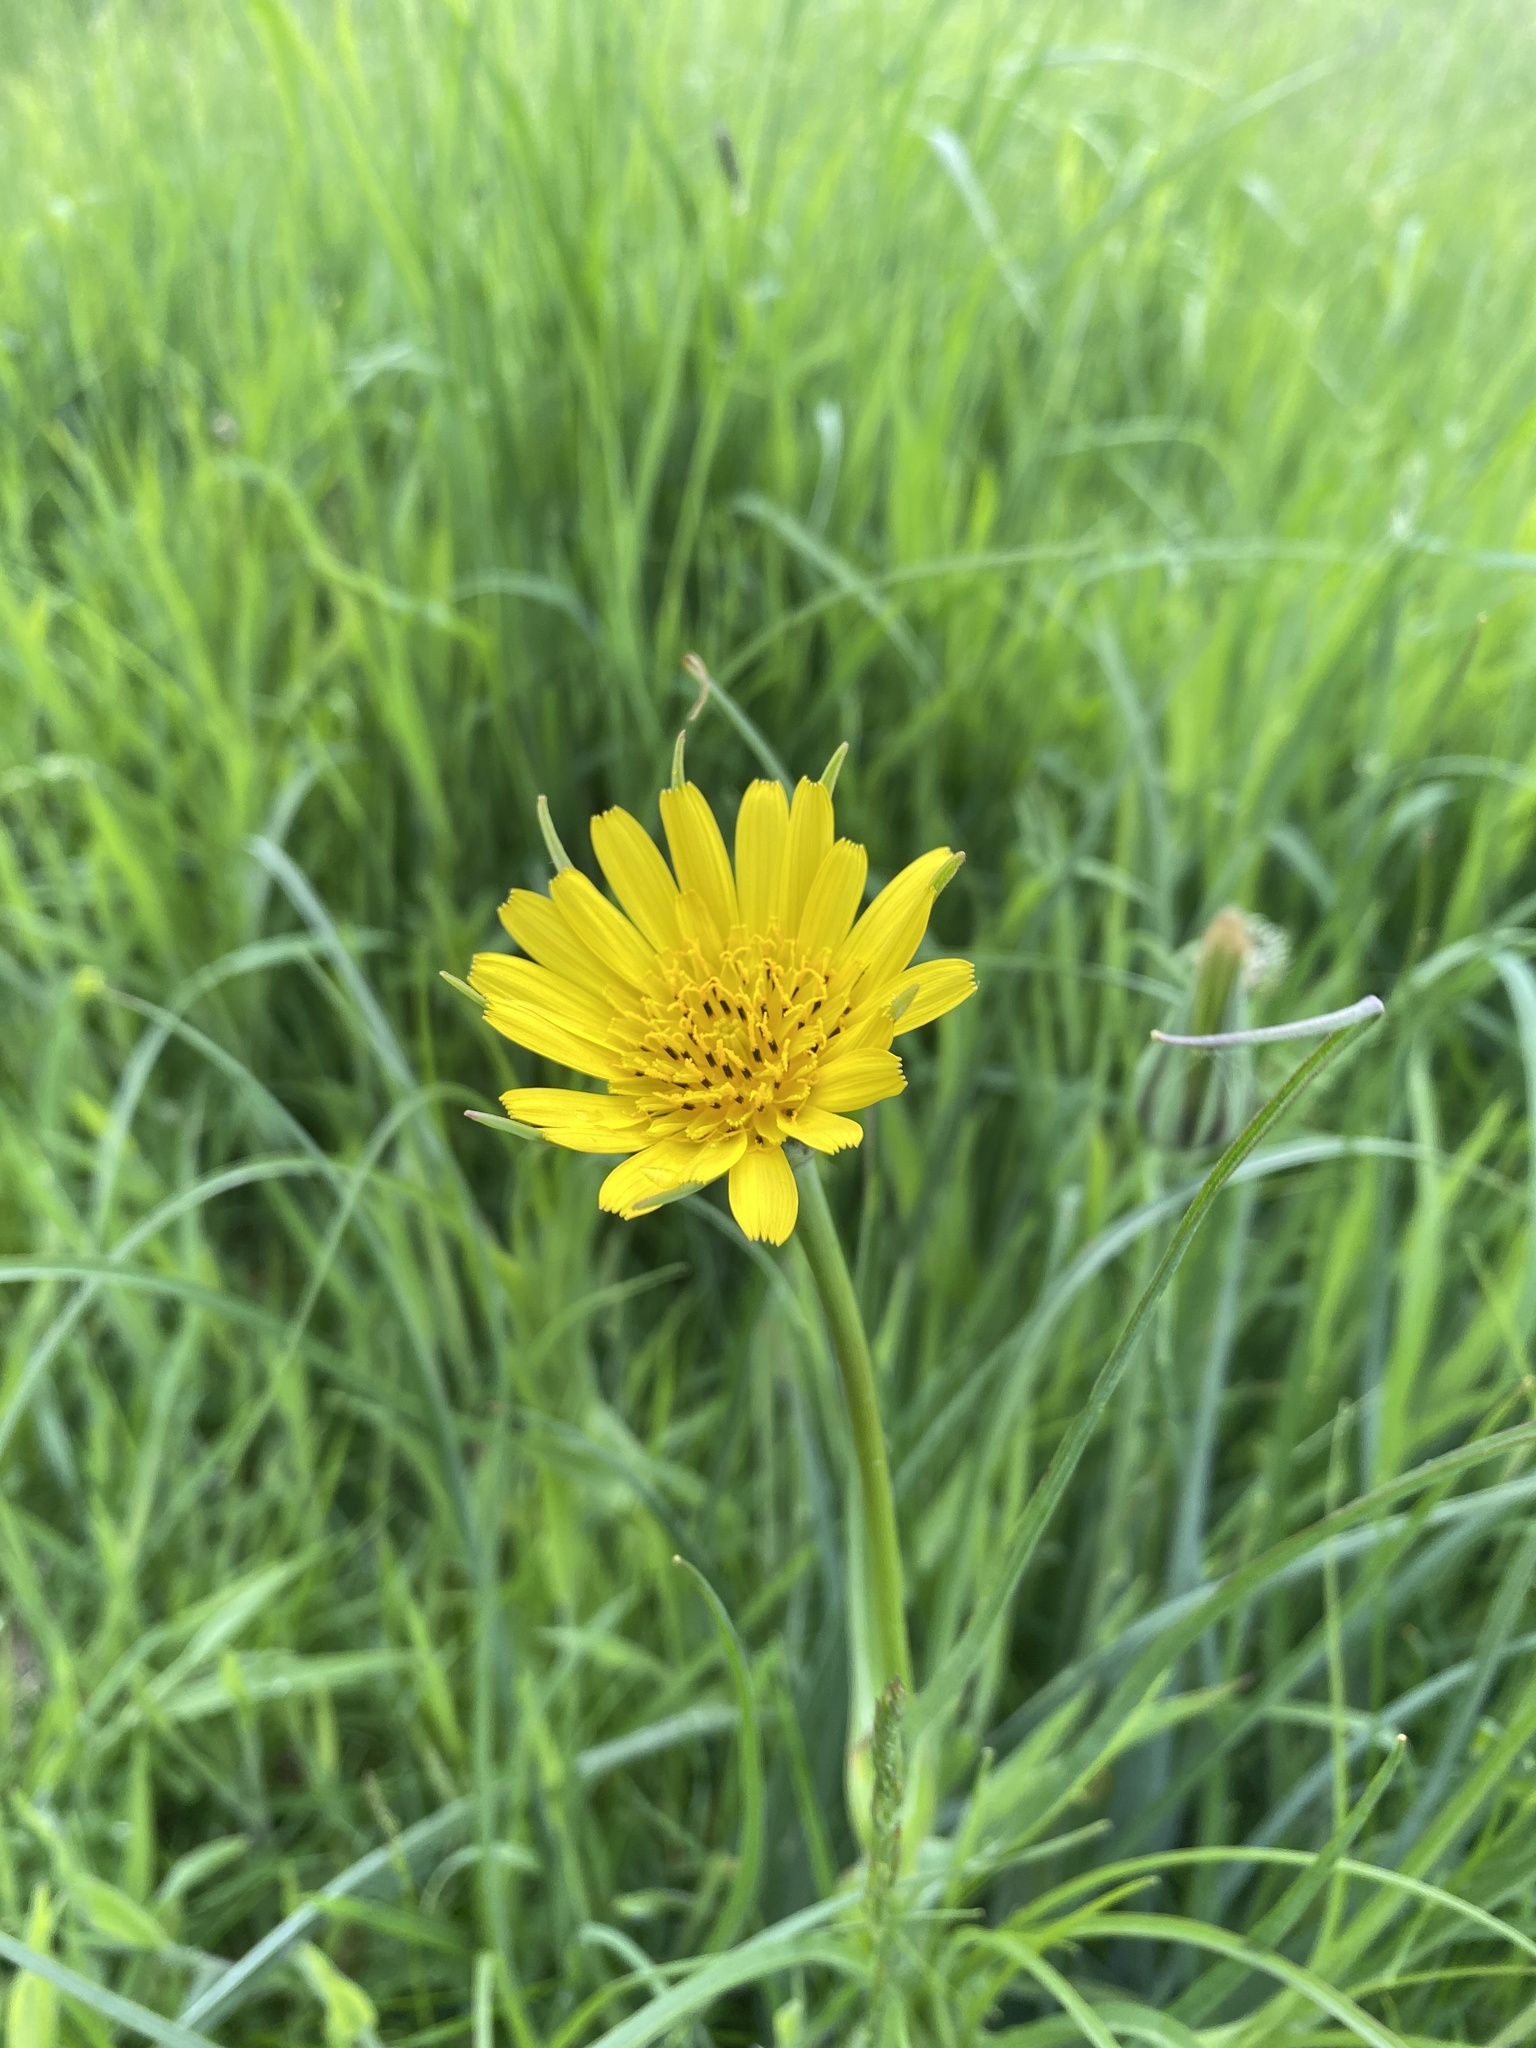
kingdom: Plantae
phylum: Tracheophyta
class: Magnoliopsida
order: Asterales
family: Asteraceae
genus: Tragopogon
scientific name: Tragopogon pratensis
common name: Goat's-beard
